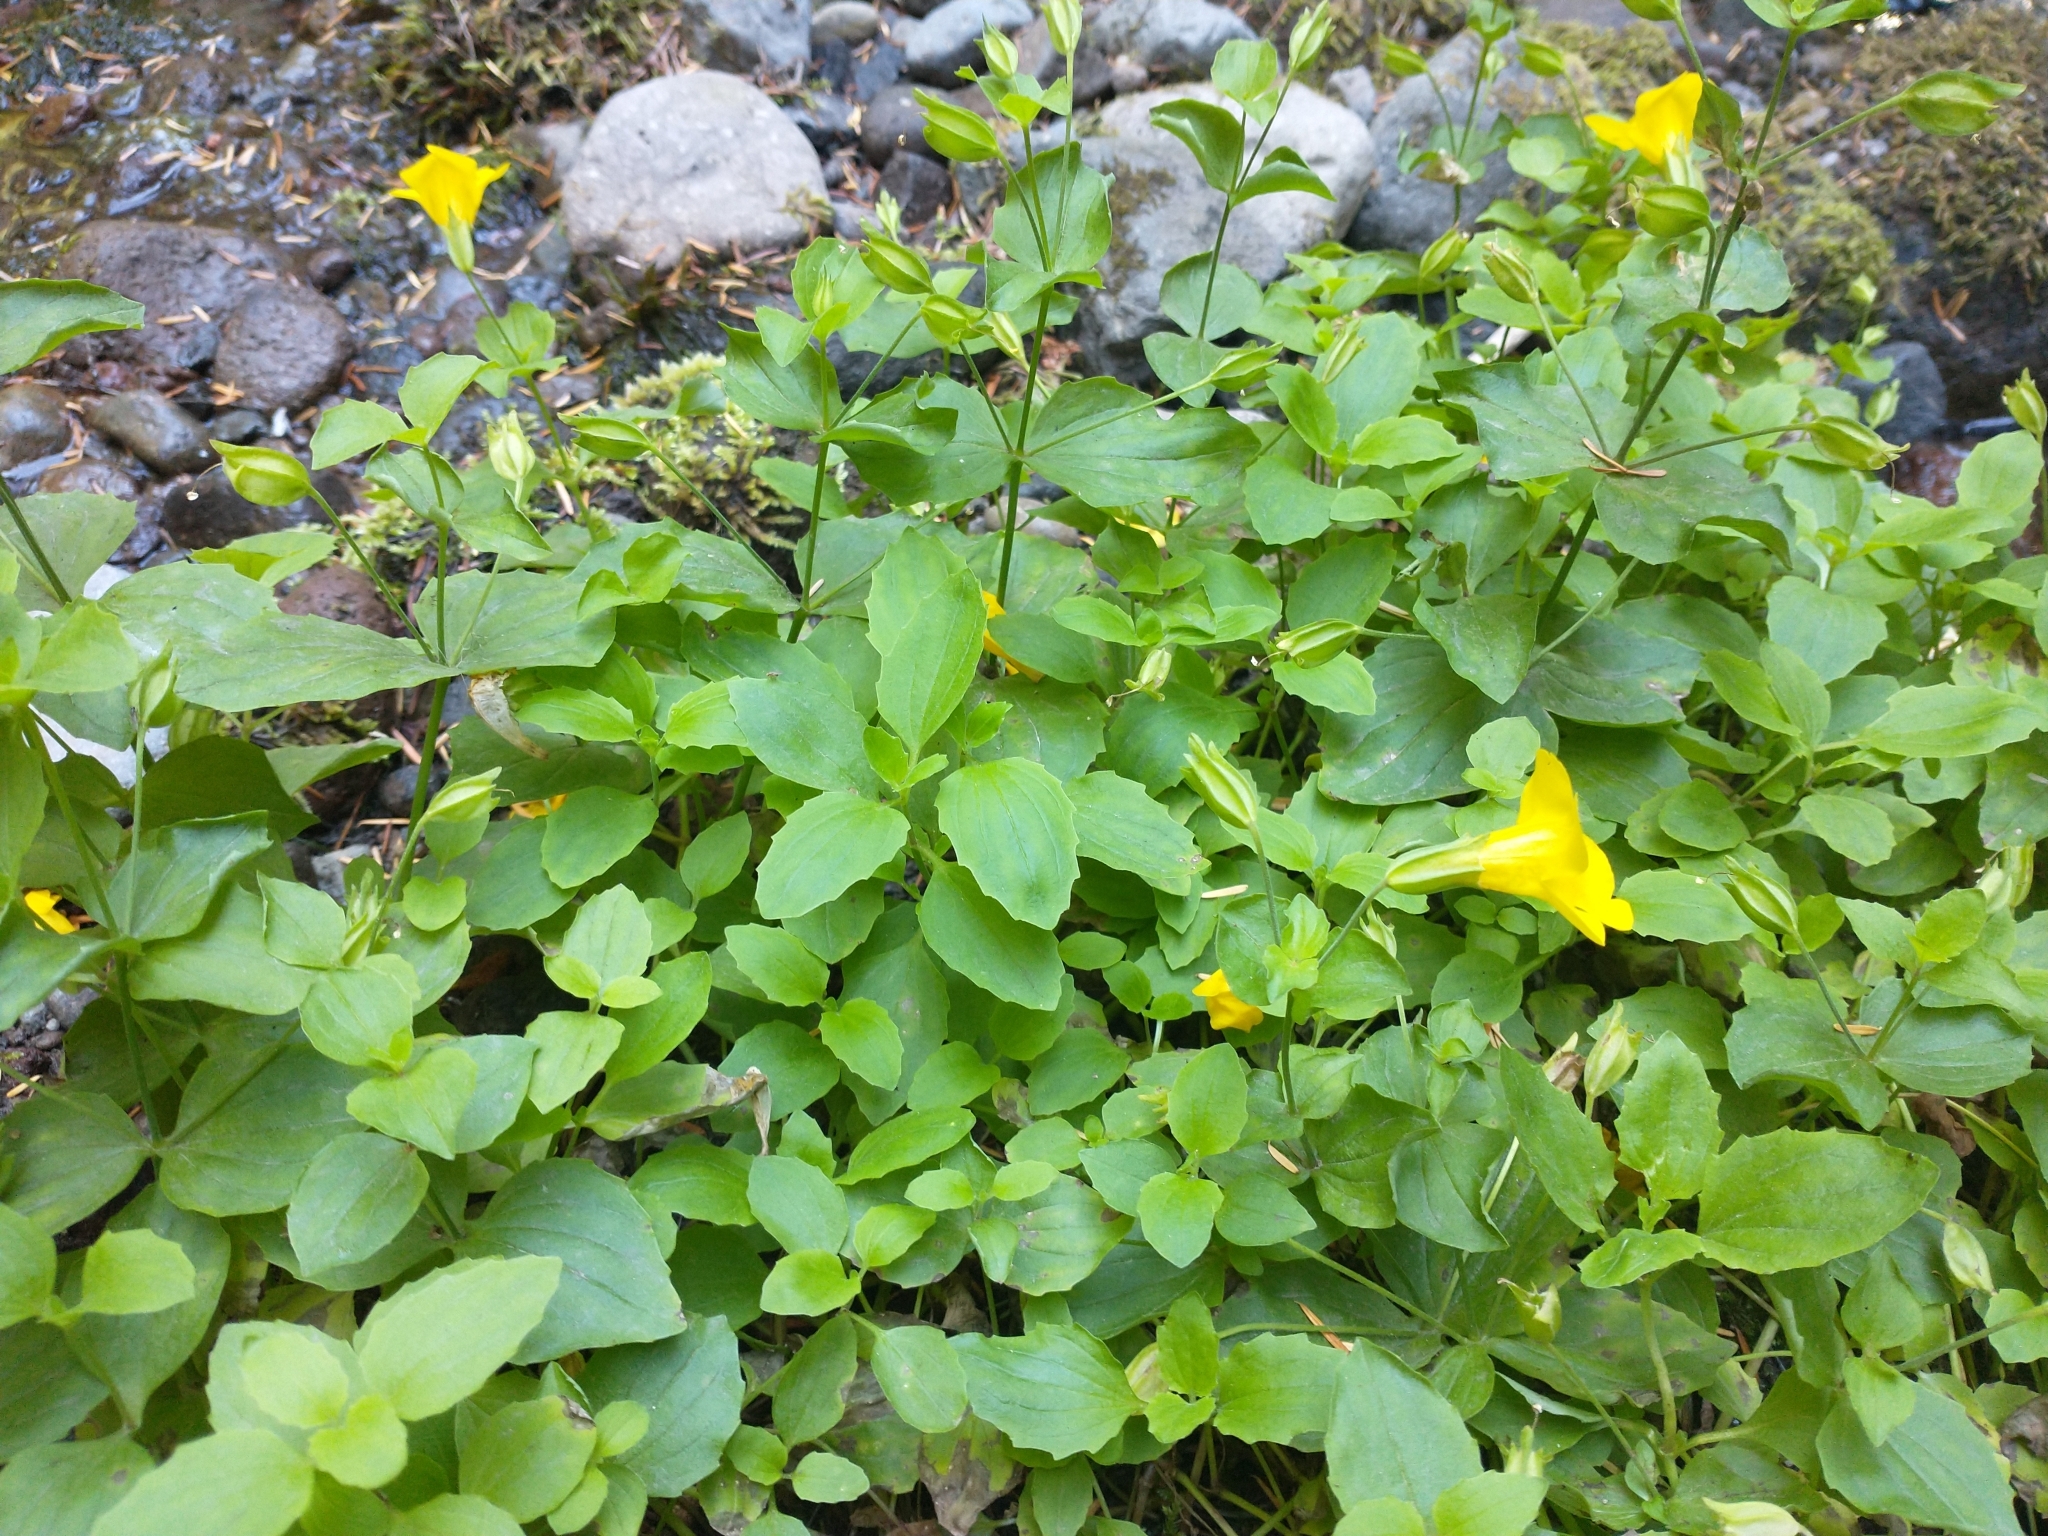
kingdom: Plantae
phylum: Tracheophyta
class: Magnoliopsida
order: Lamiales
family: Phrymaceae
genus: Erythranthe
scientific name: Erythranthe decora
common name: Mannered monkeyflower
